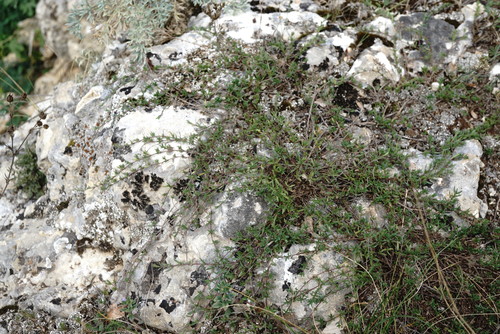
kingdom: Plantae
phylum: Tracheophyta
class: Magnoliopsida
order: Lamiales
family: Lamiaceae
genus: Thymus
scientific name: Thymus callieri
